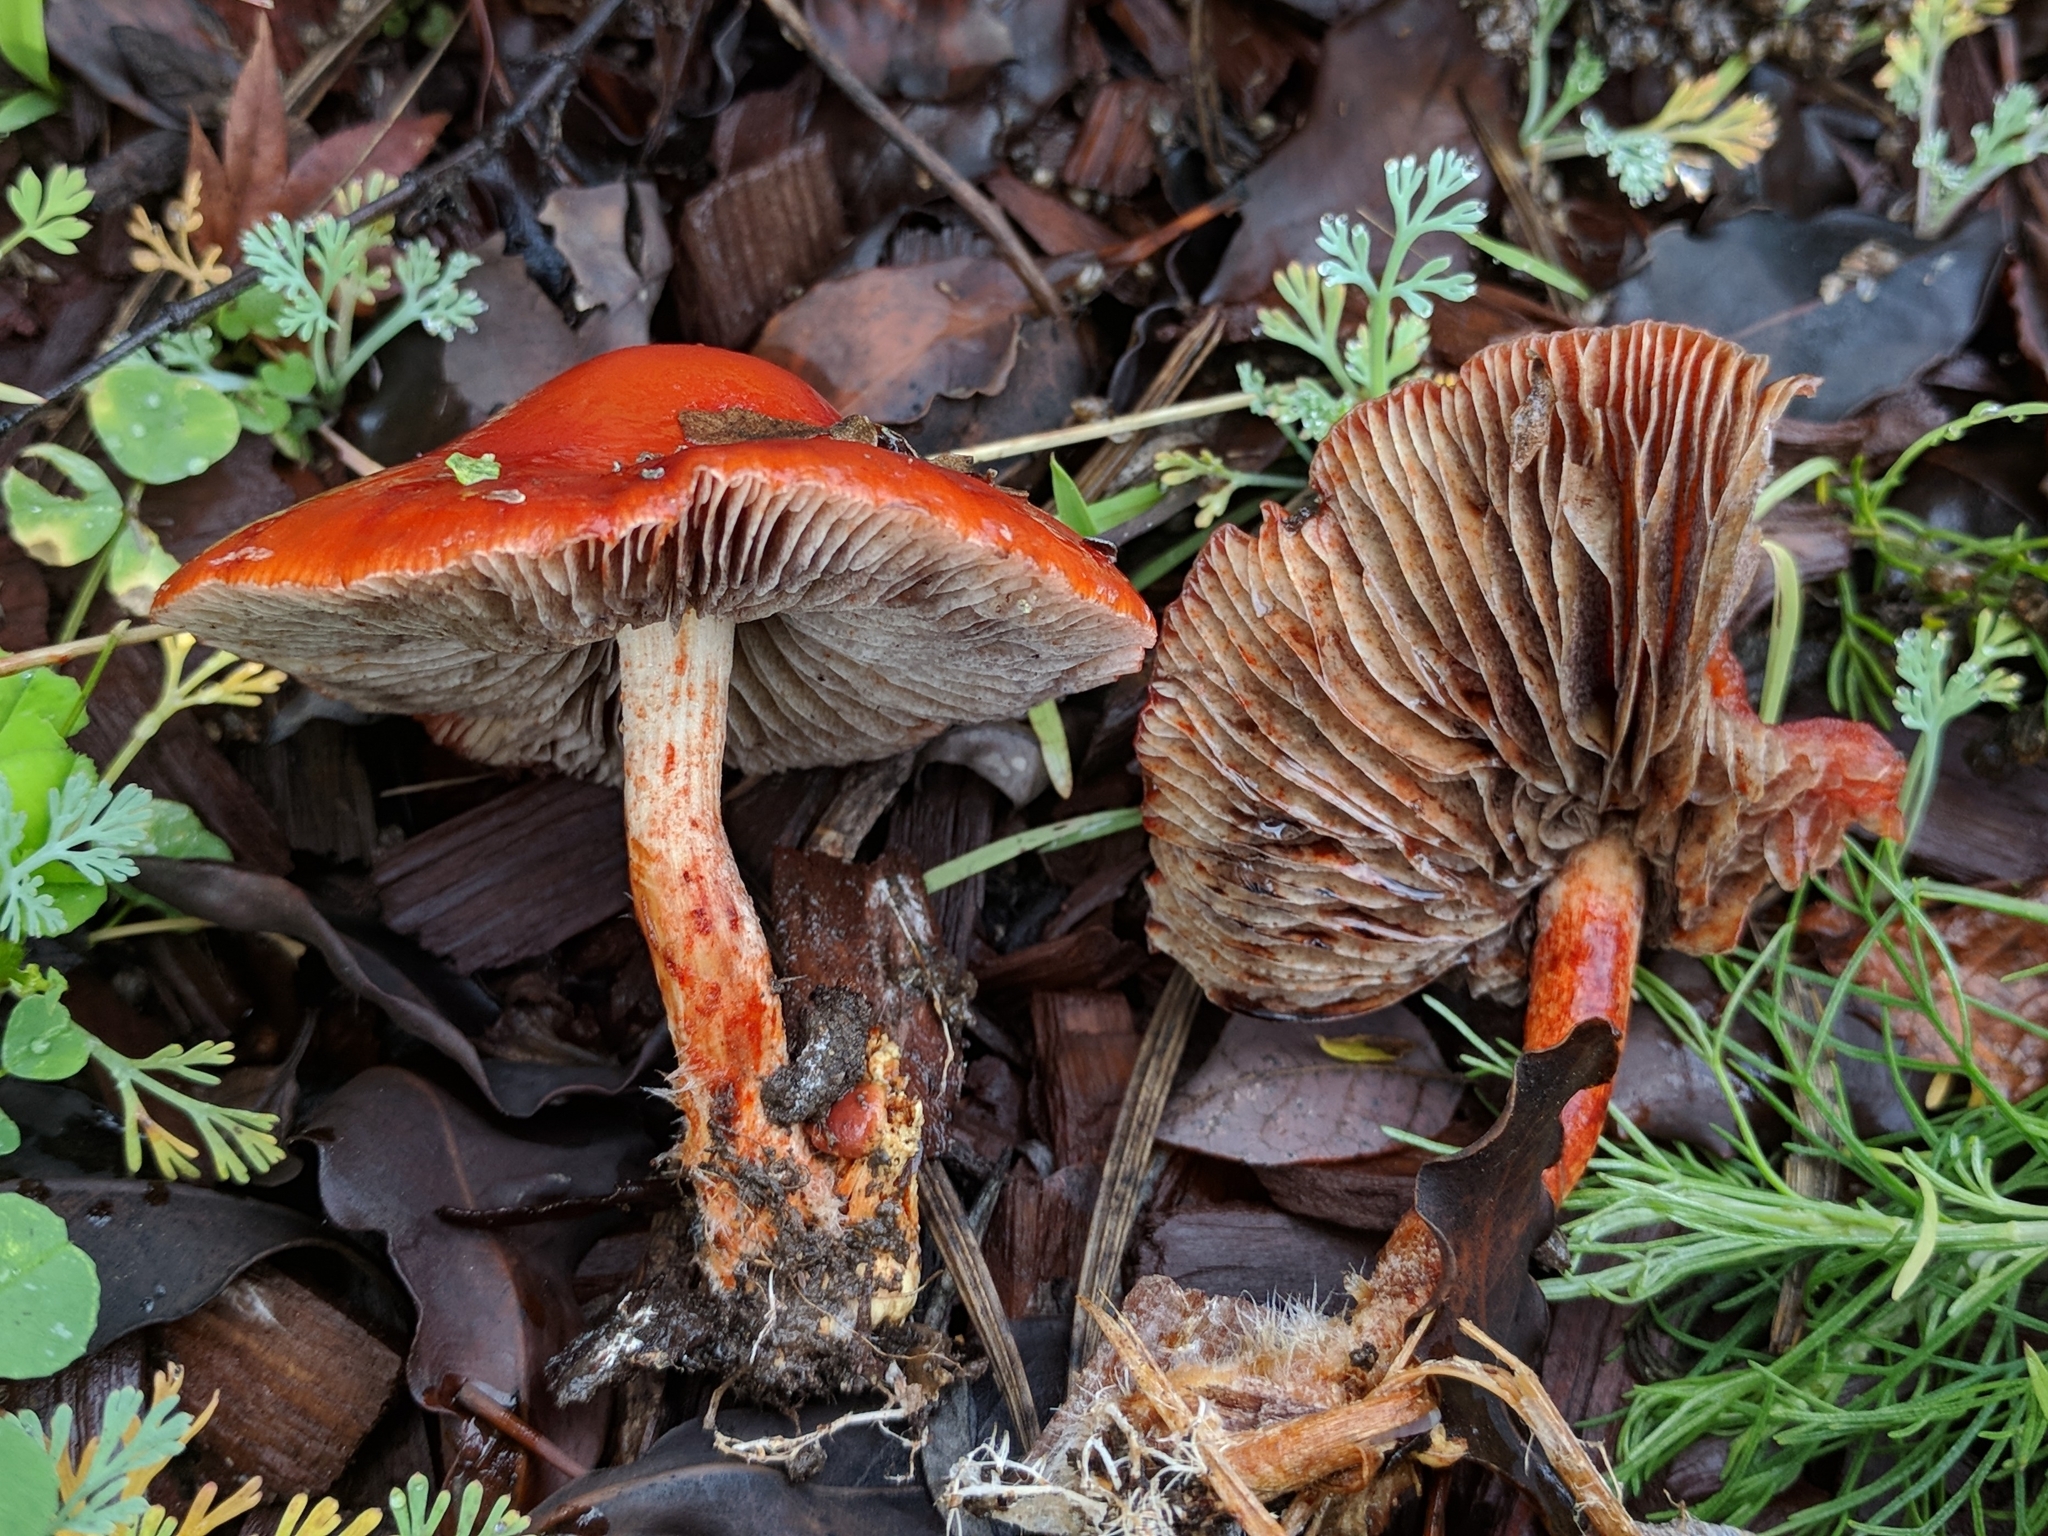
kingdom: Fungi
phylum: Basidiomycota
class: Agaricomycetes
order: Agaricales
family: Strophariaceae
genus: Leratiomyces
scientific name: Leratiomyces ceres
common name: Redlead roundhead
